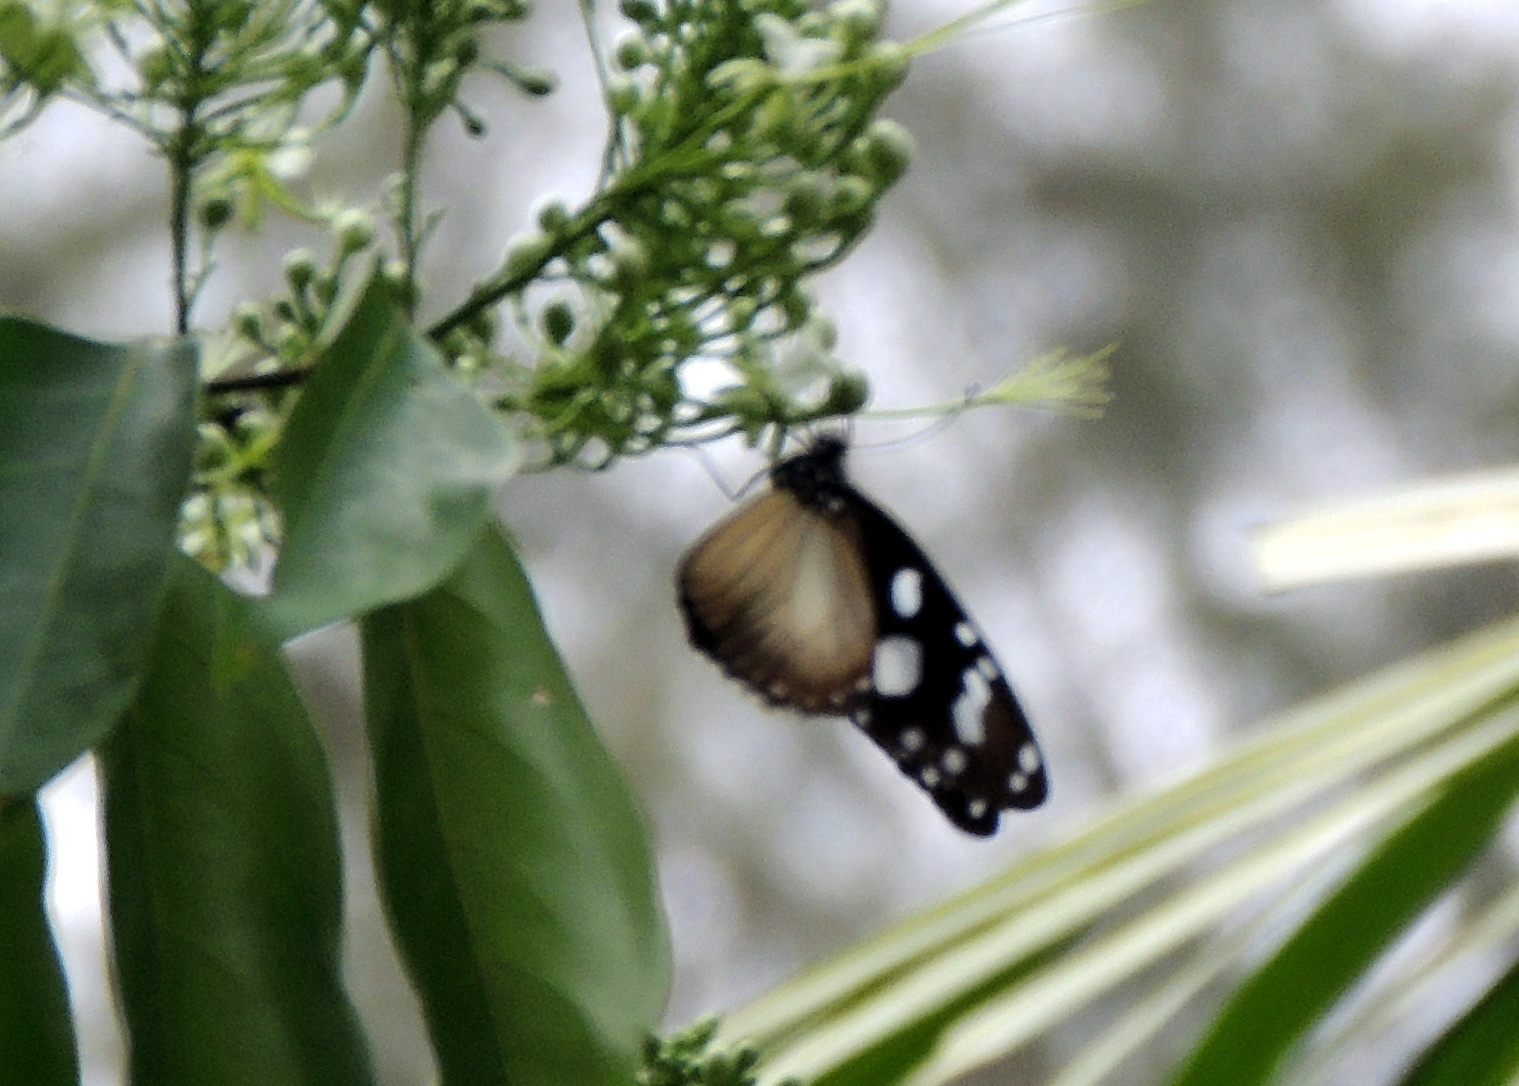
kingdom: Animalia
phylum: Arthropoda
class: Insecta
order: Lepidoptera
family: Nymphalidae
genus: Amauris
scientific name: Amauris damocles
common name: Small monk
